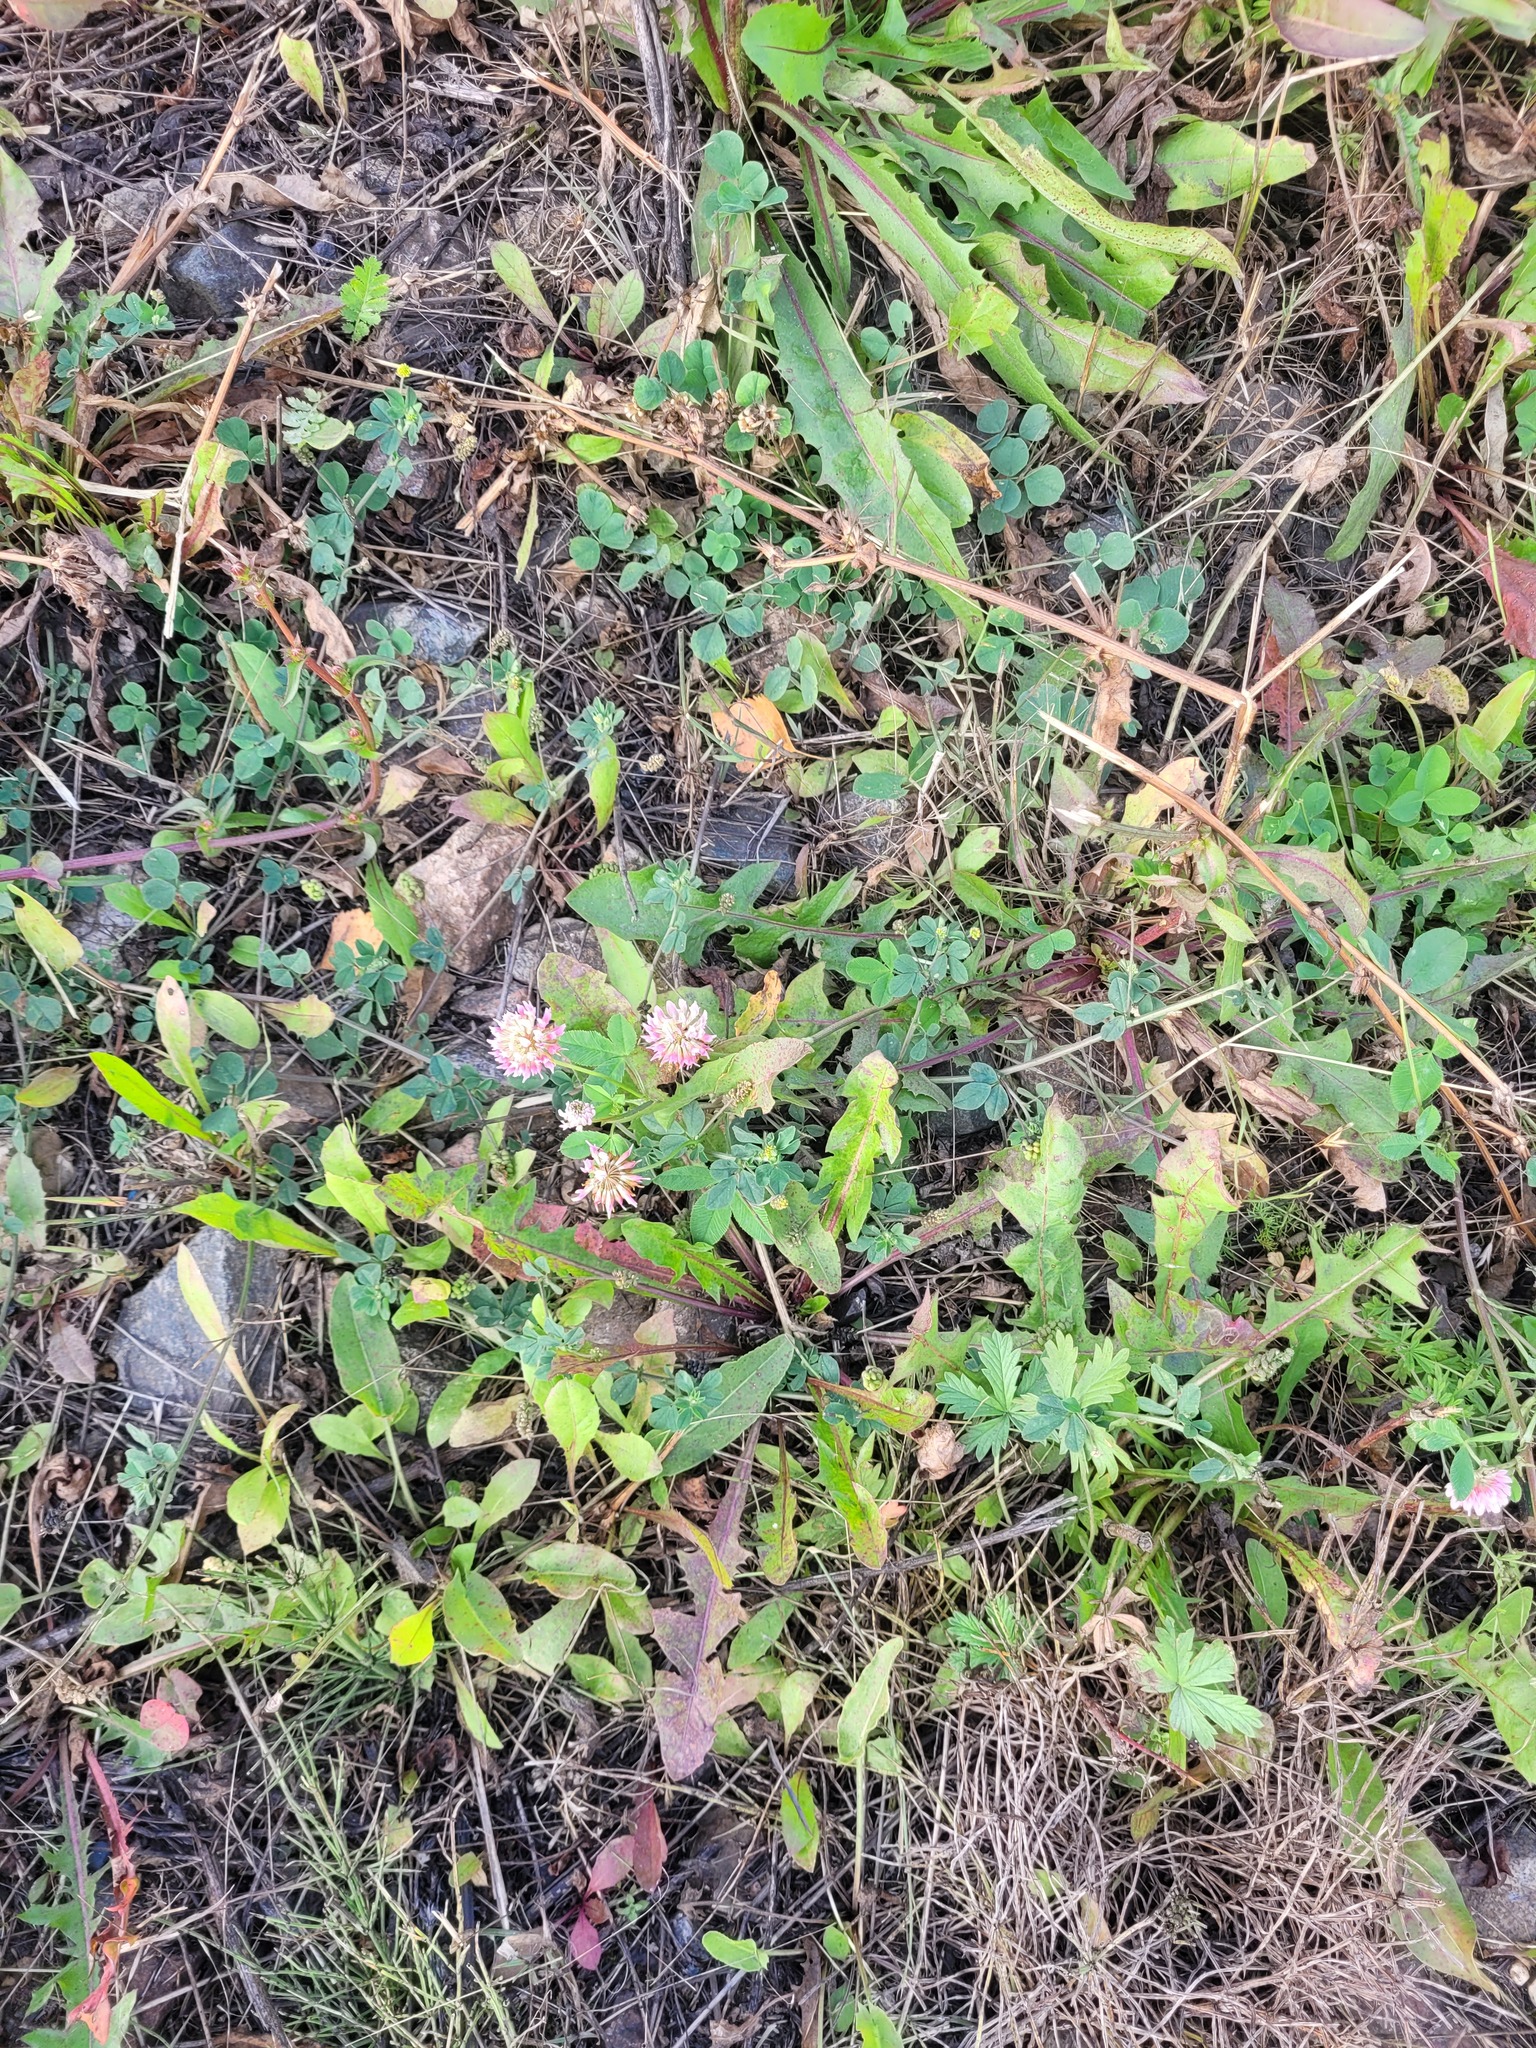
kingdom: Plantae
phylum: Tracheophyta
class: Magnoliopsida
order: Fabales
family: Fabaceae
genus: Trifolium
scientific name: Trifolium hybridum
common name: Alsike clover
